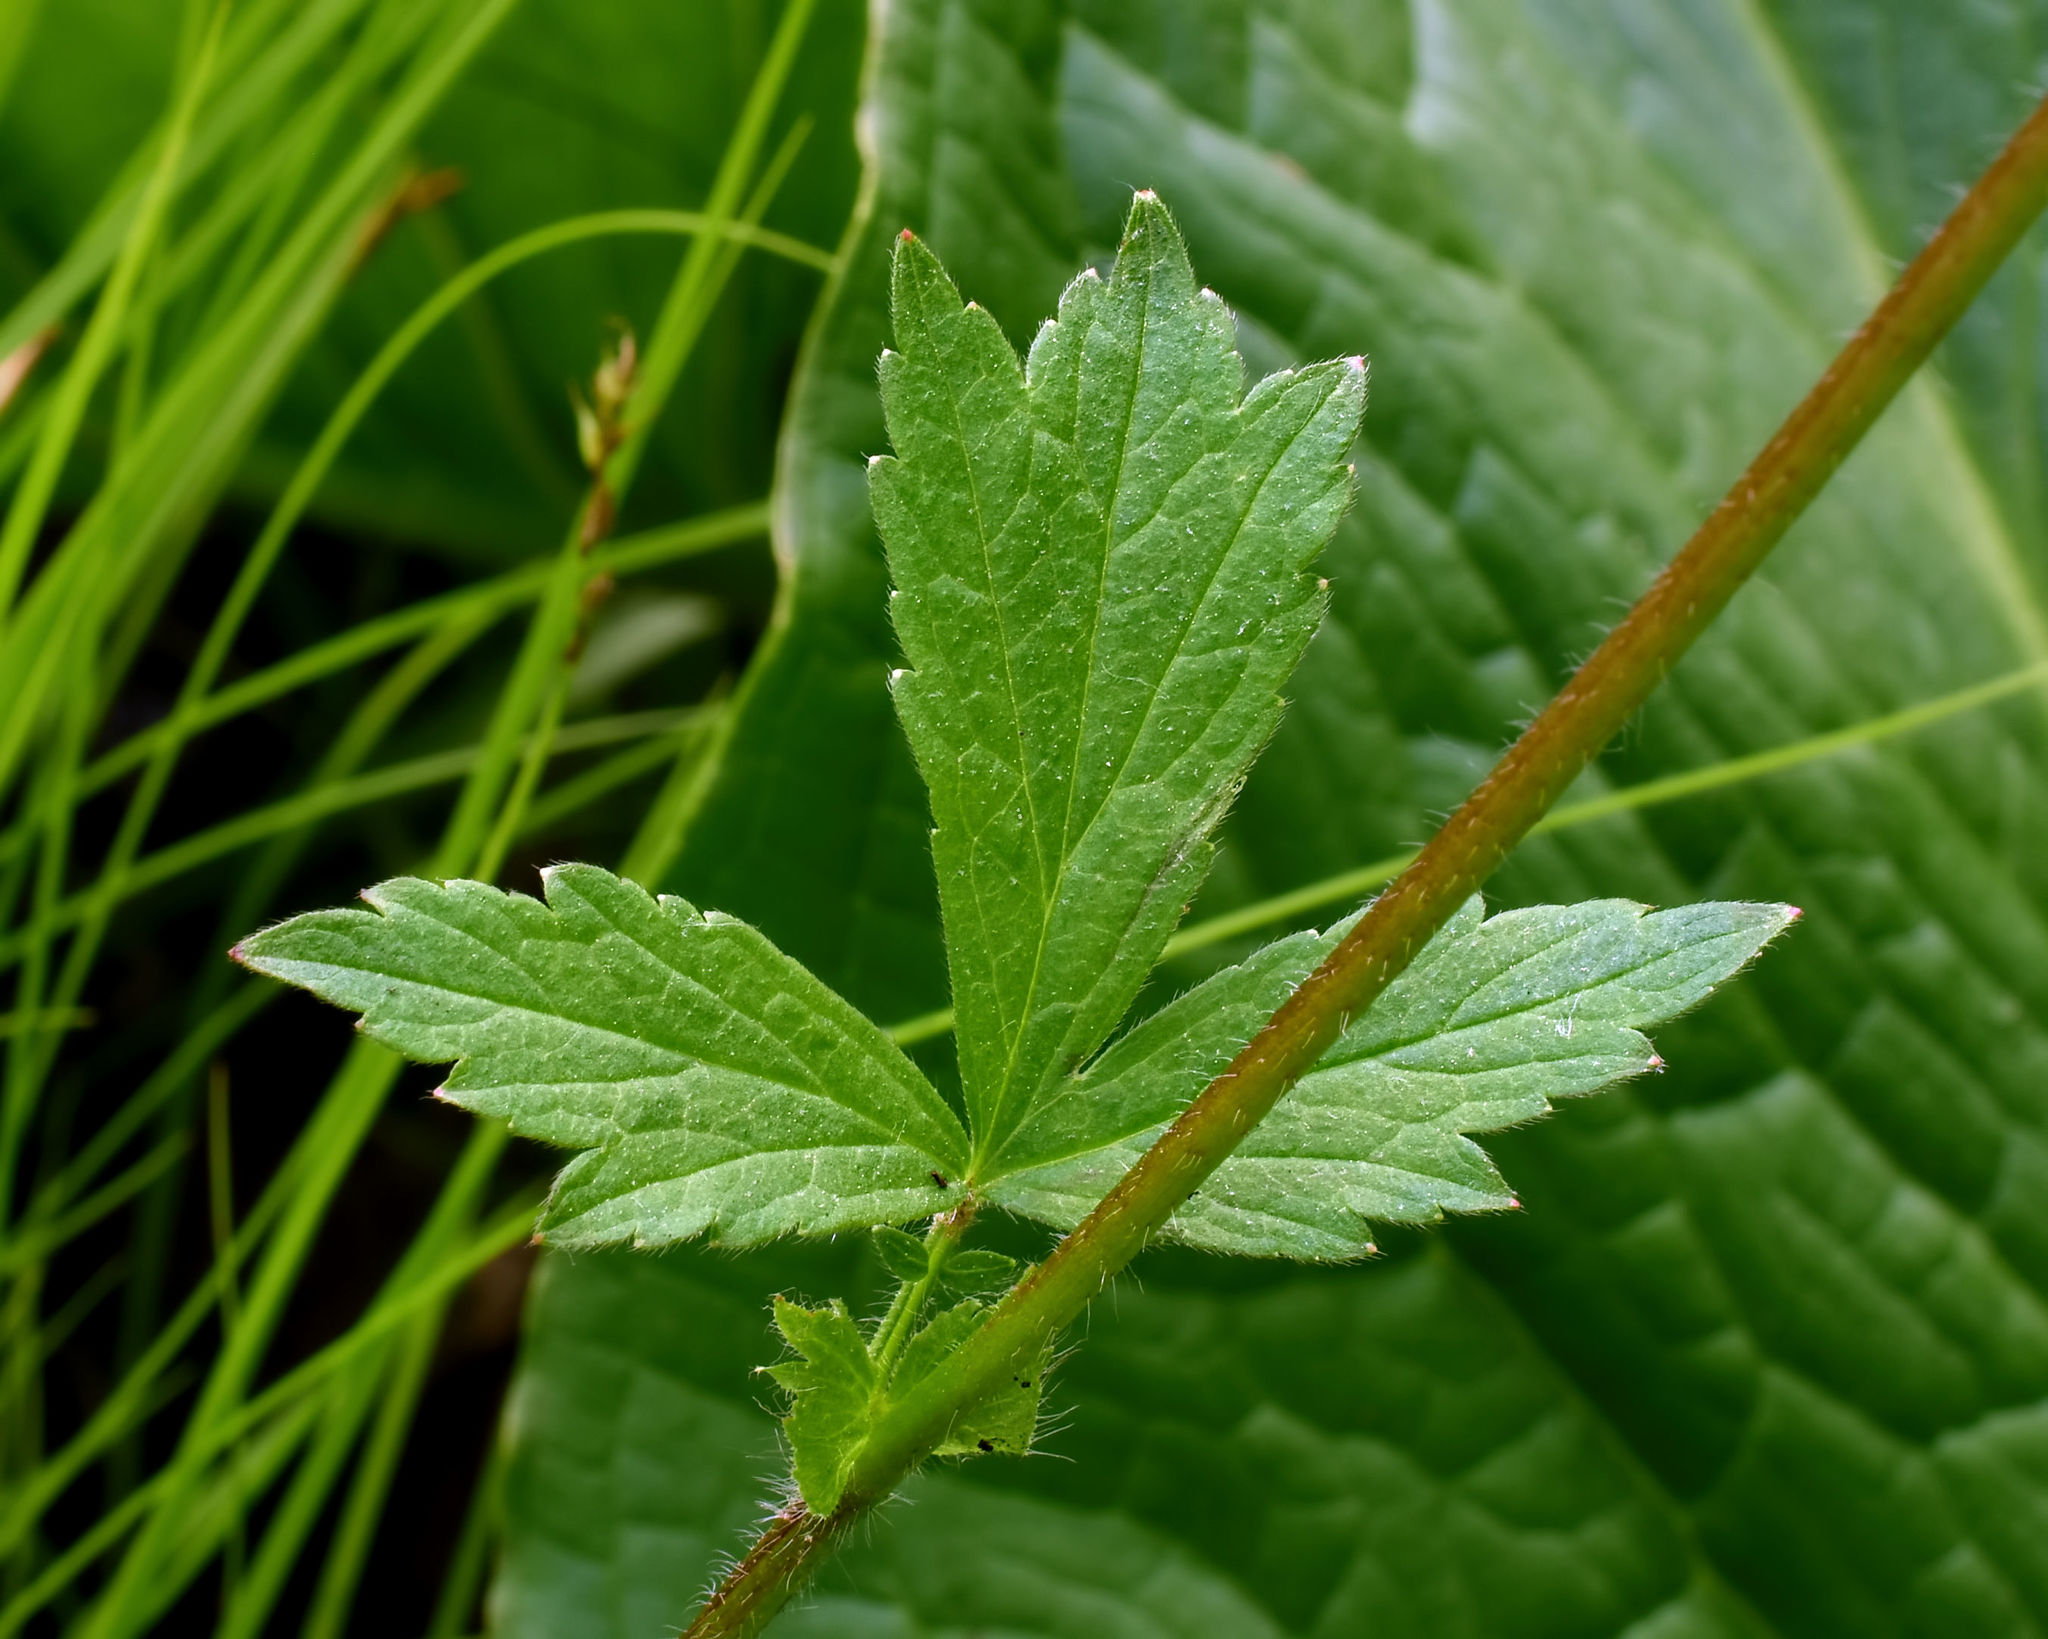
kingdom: Plantae
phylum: Tracheophyta
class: Magnoliopsida
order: Rosales
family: Rosaceae
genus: Geum
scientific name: Geum rivale
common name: Water avens
